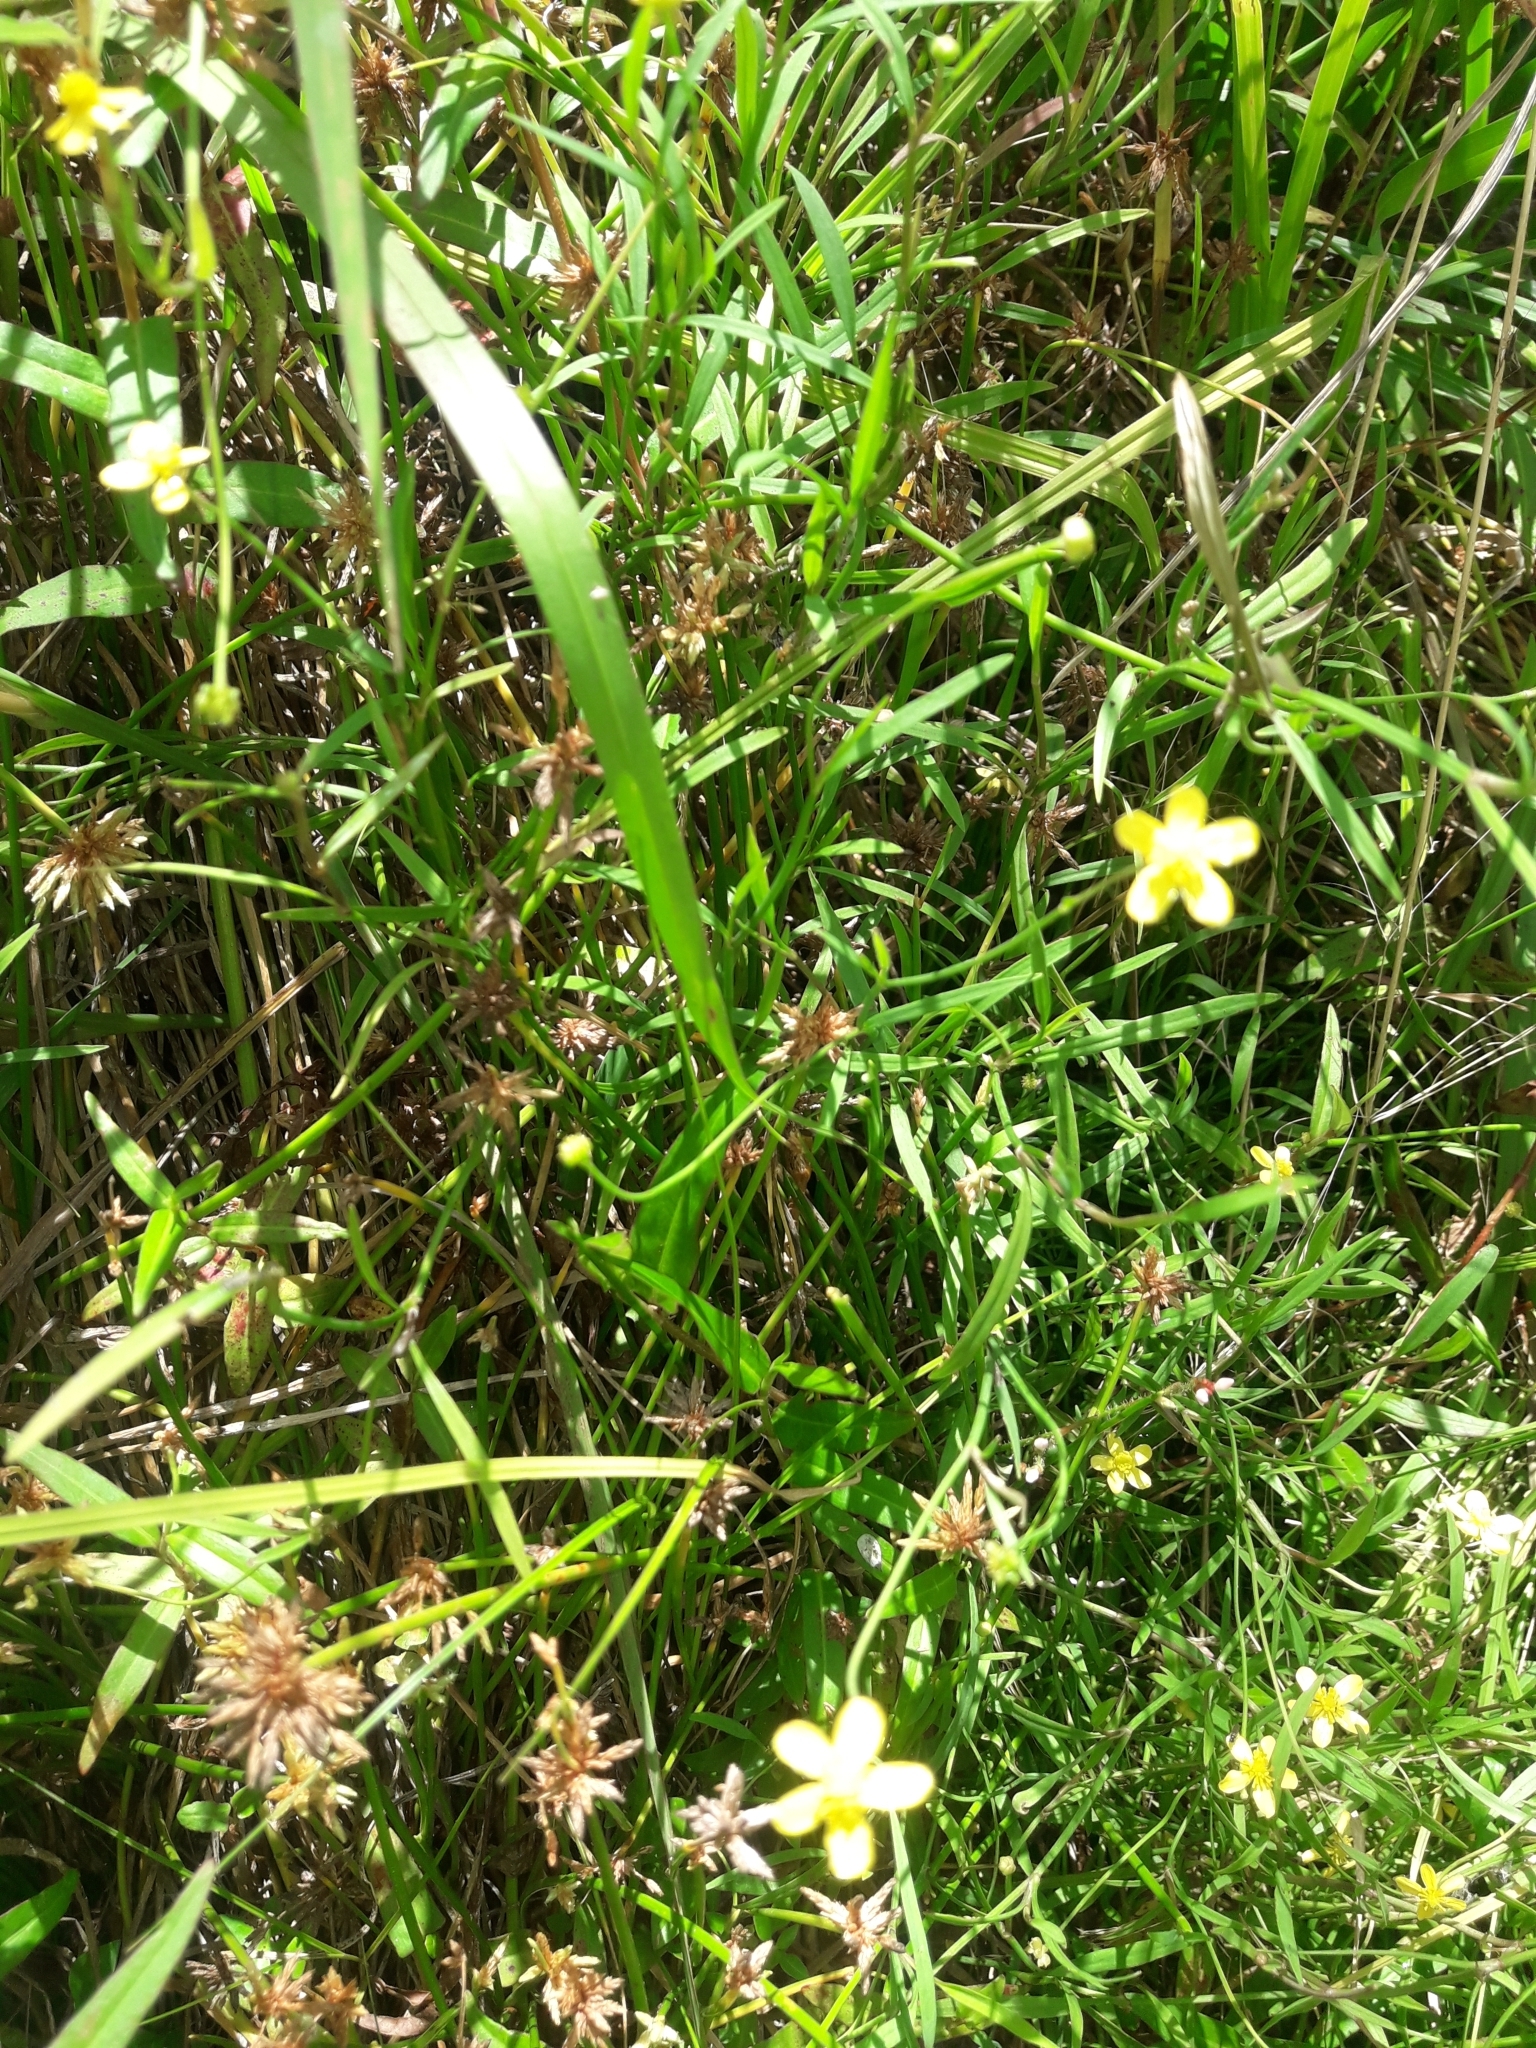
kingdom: Plantae
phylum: Tracheophyta
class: Magnoliopsida
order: Ranunculales
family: Ranunculaceae
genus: Ranunculus
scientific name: Ranunculus flammula
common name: Lesser spearwort
